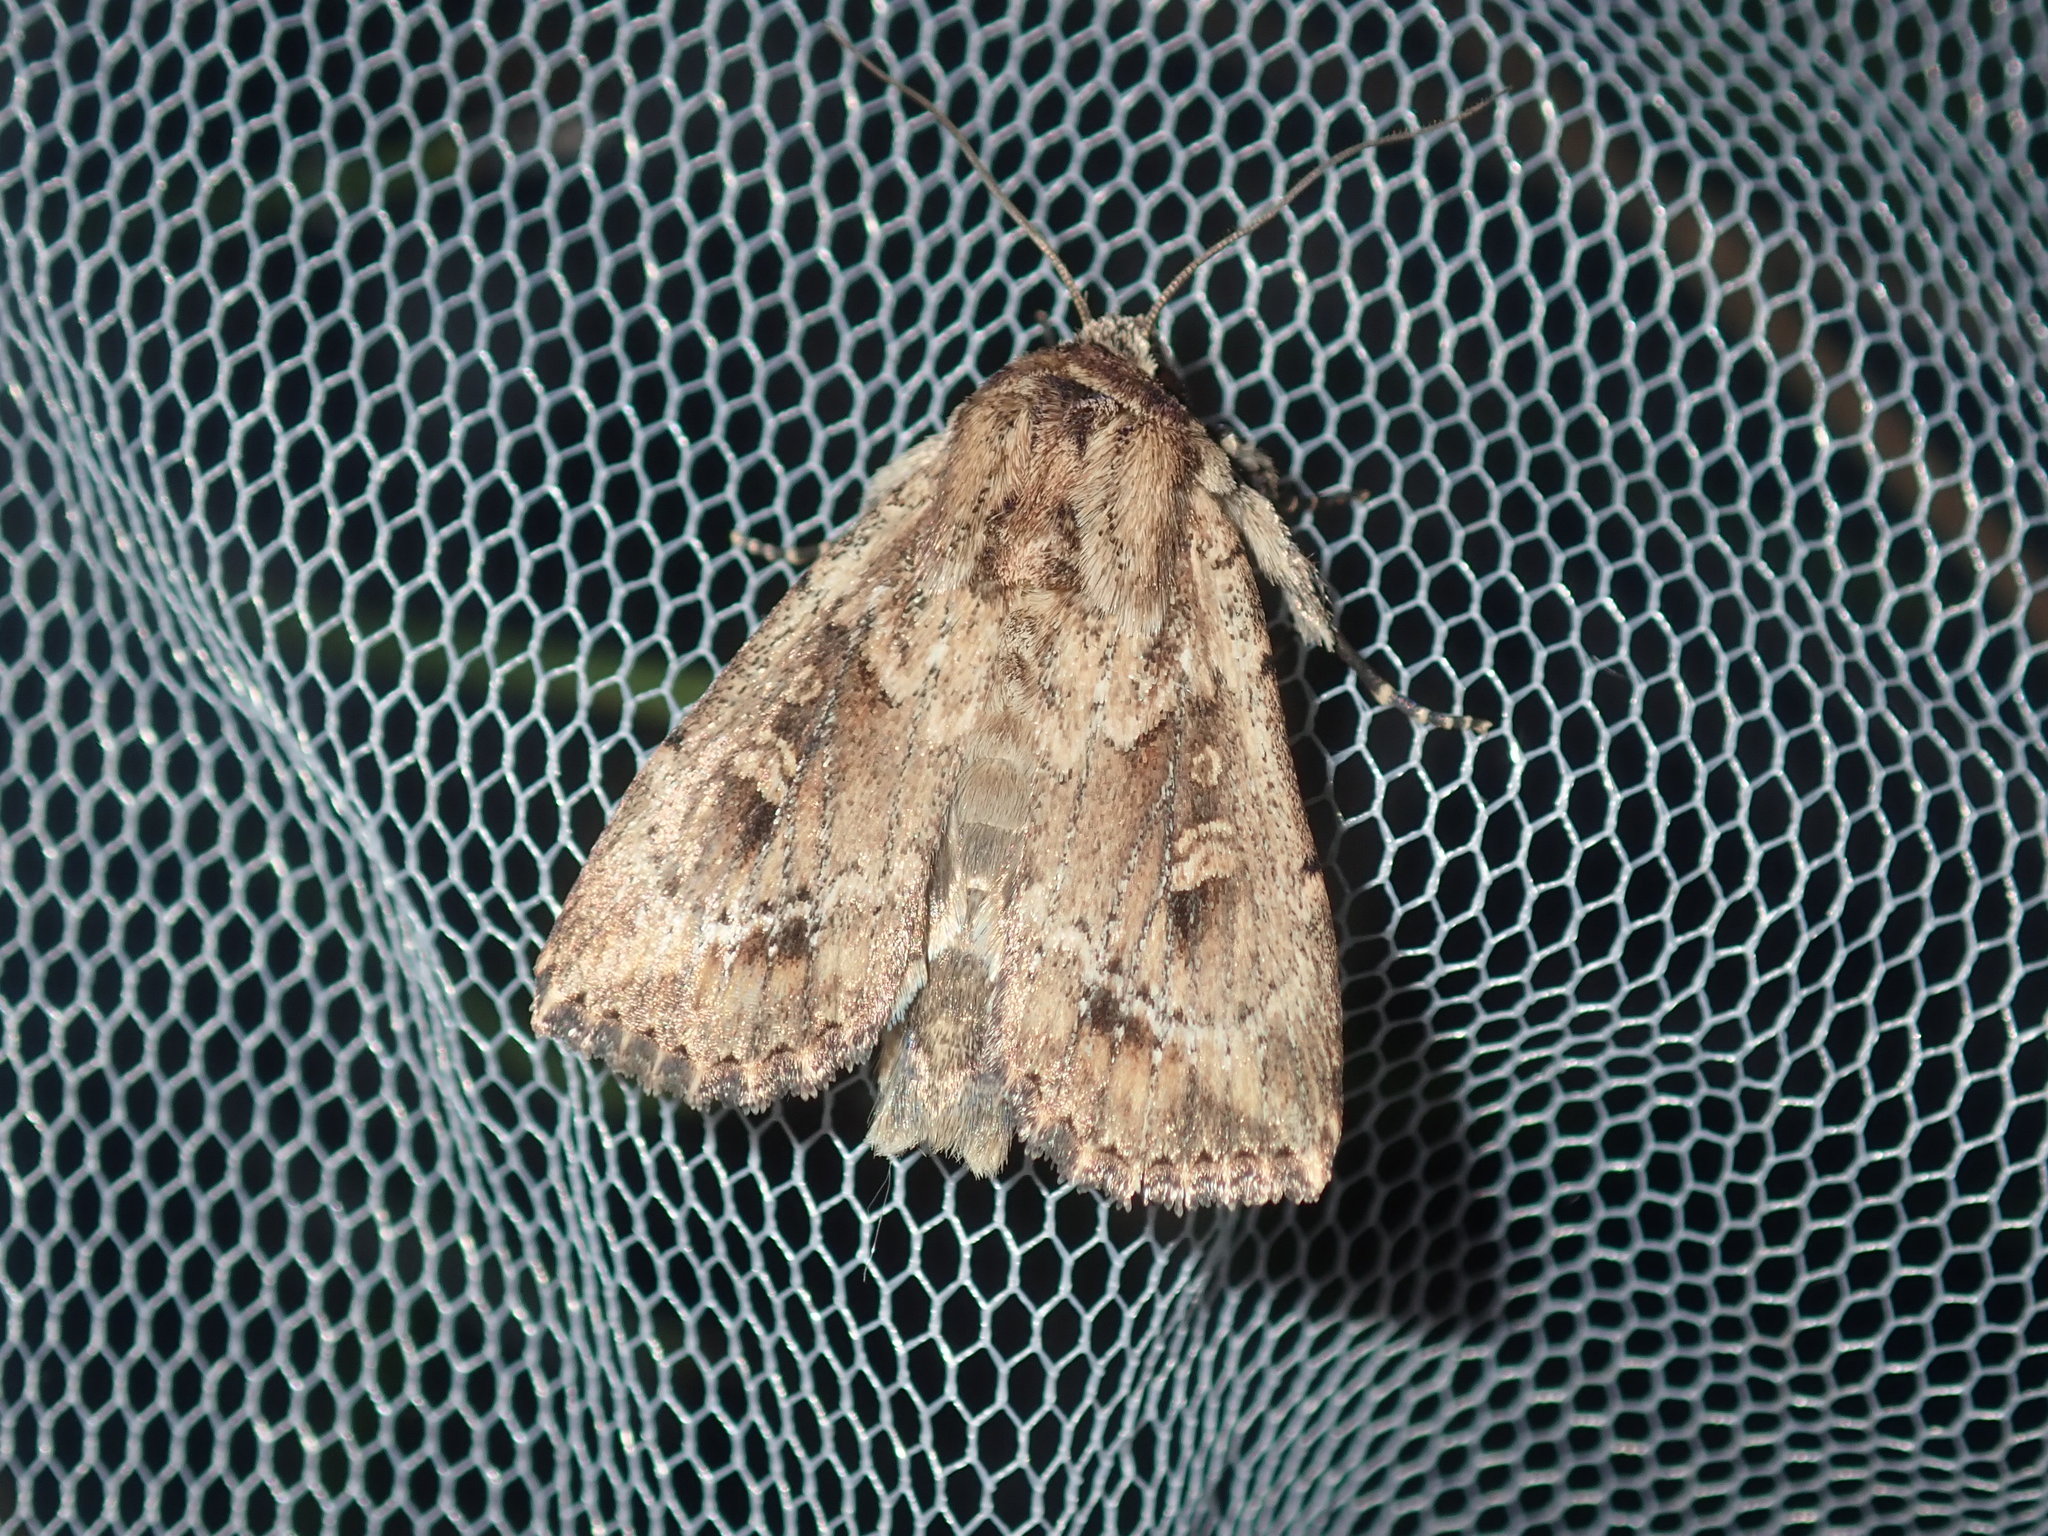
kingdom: Animalia
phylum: Arthropoda
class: Insecta
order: Lepidoptera
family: Noctuidae
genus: Mythimna
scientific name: Mythimna reversa
